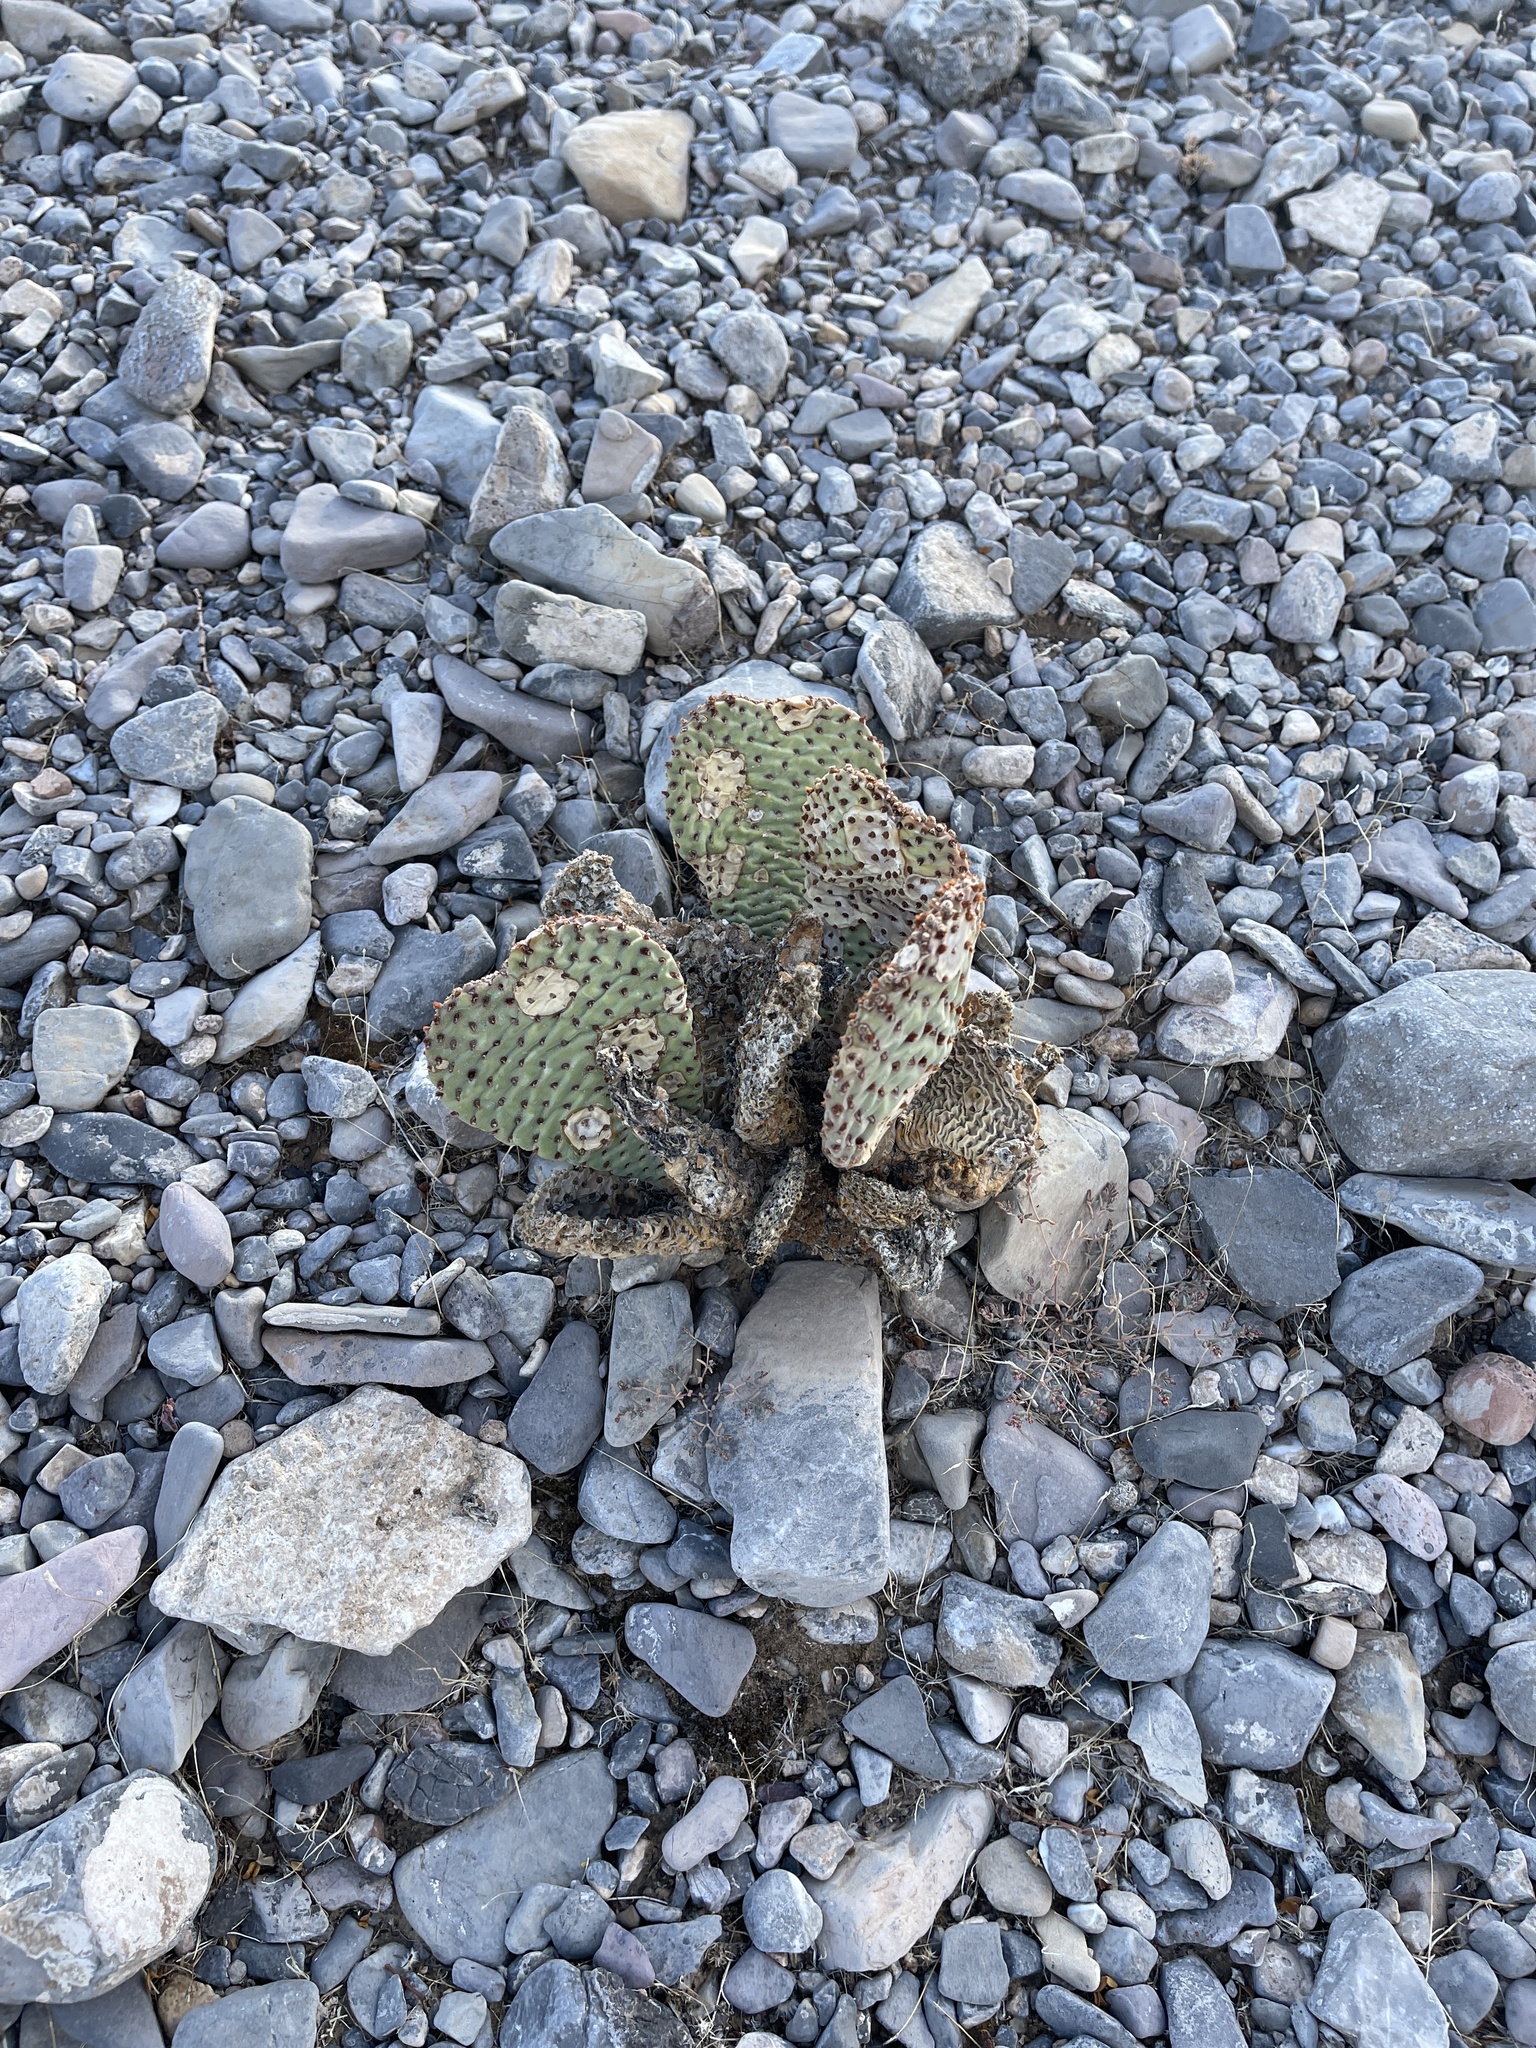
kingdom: Plantae
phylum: Tracheophyta
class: Magnoliopsida
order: Caryophyllales
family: Cactaceae
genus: Opuntia
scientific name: Opuntia basilaris
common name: Beavertail prickly-pear
